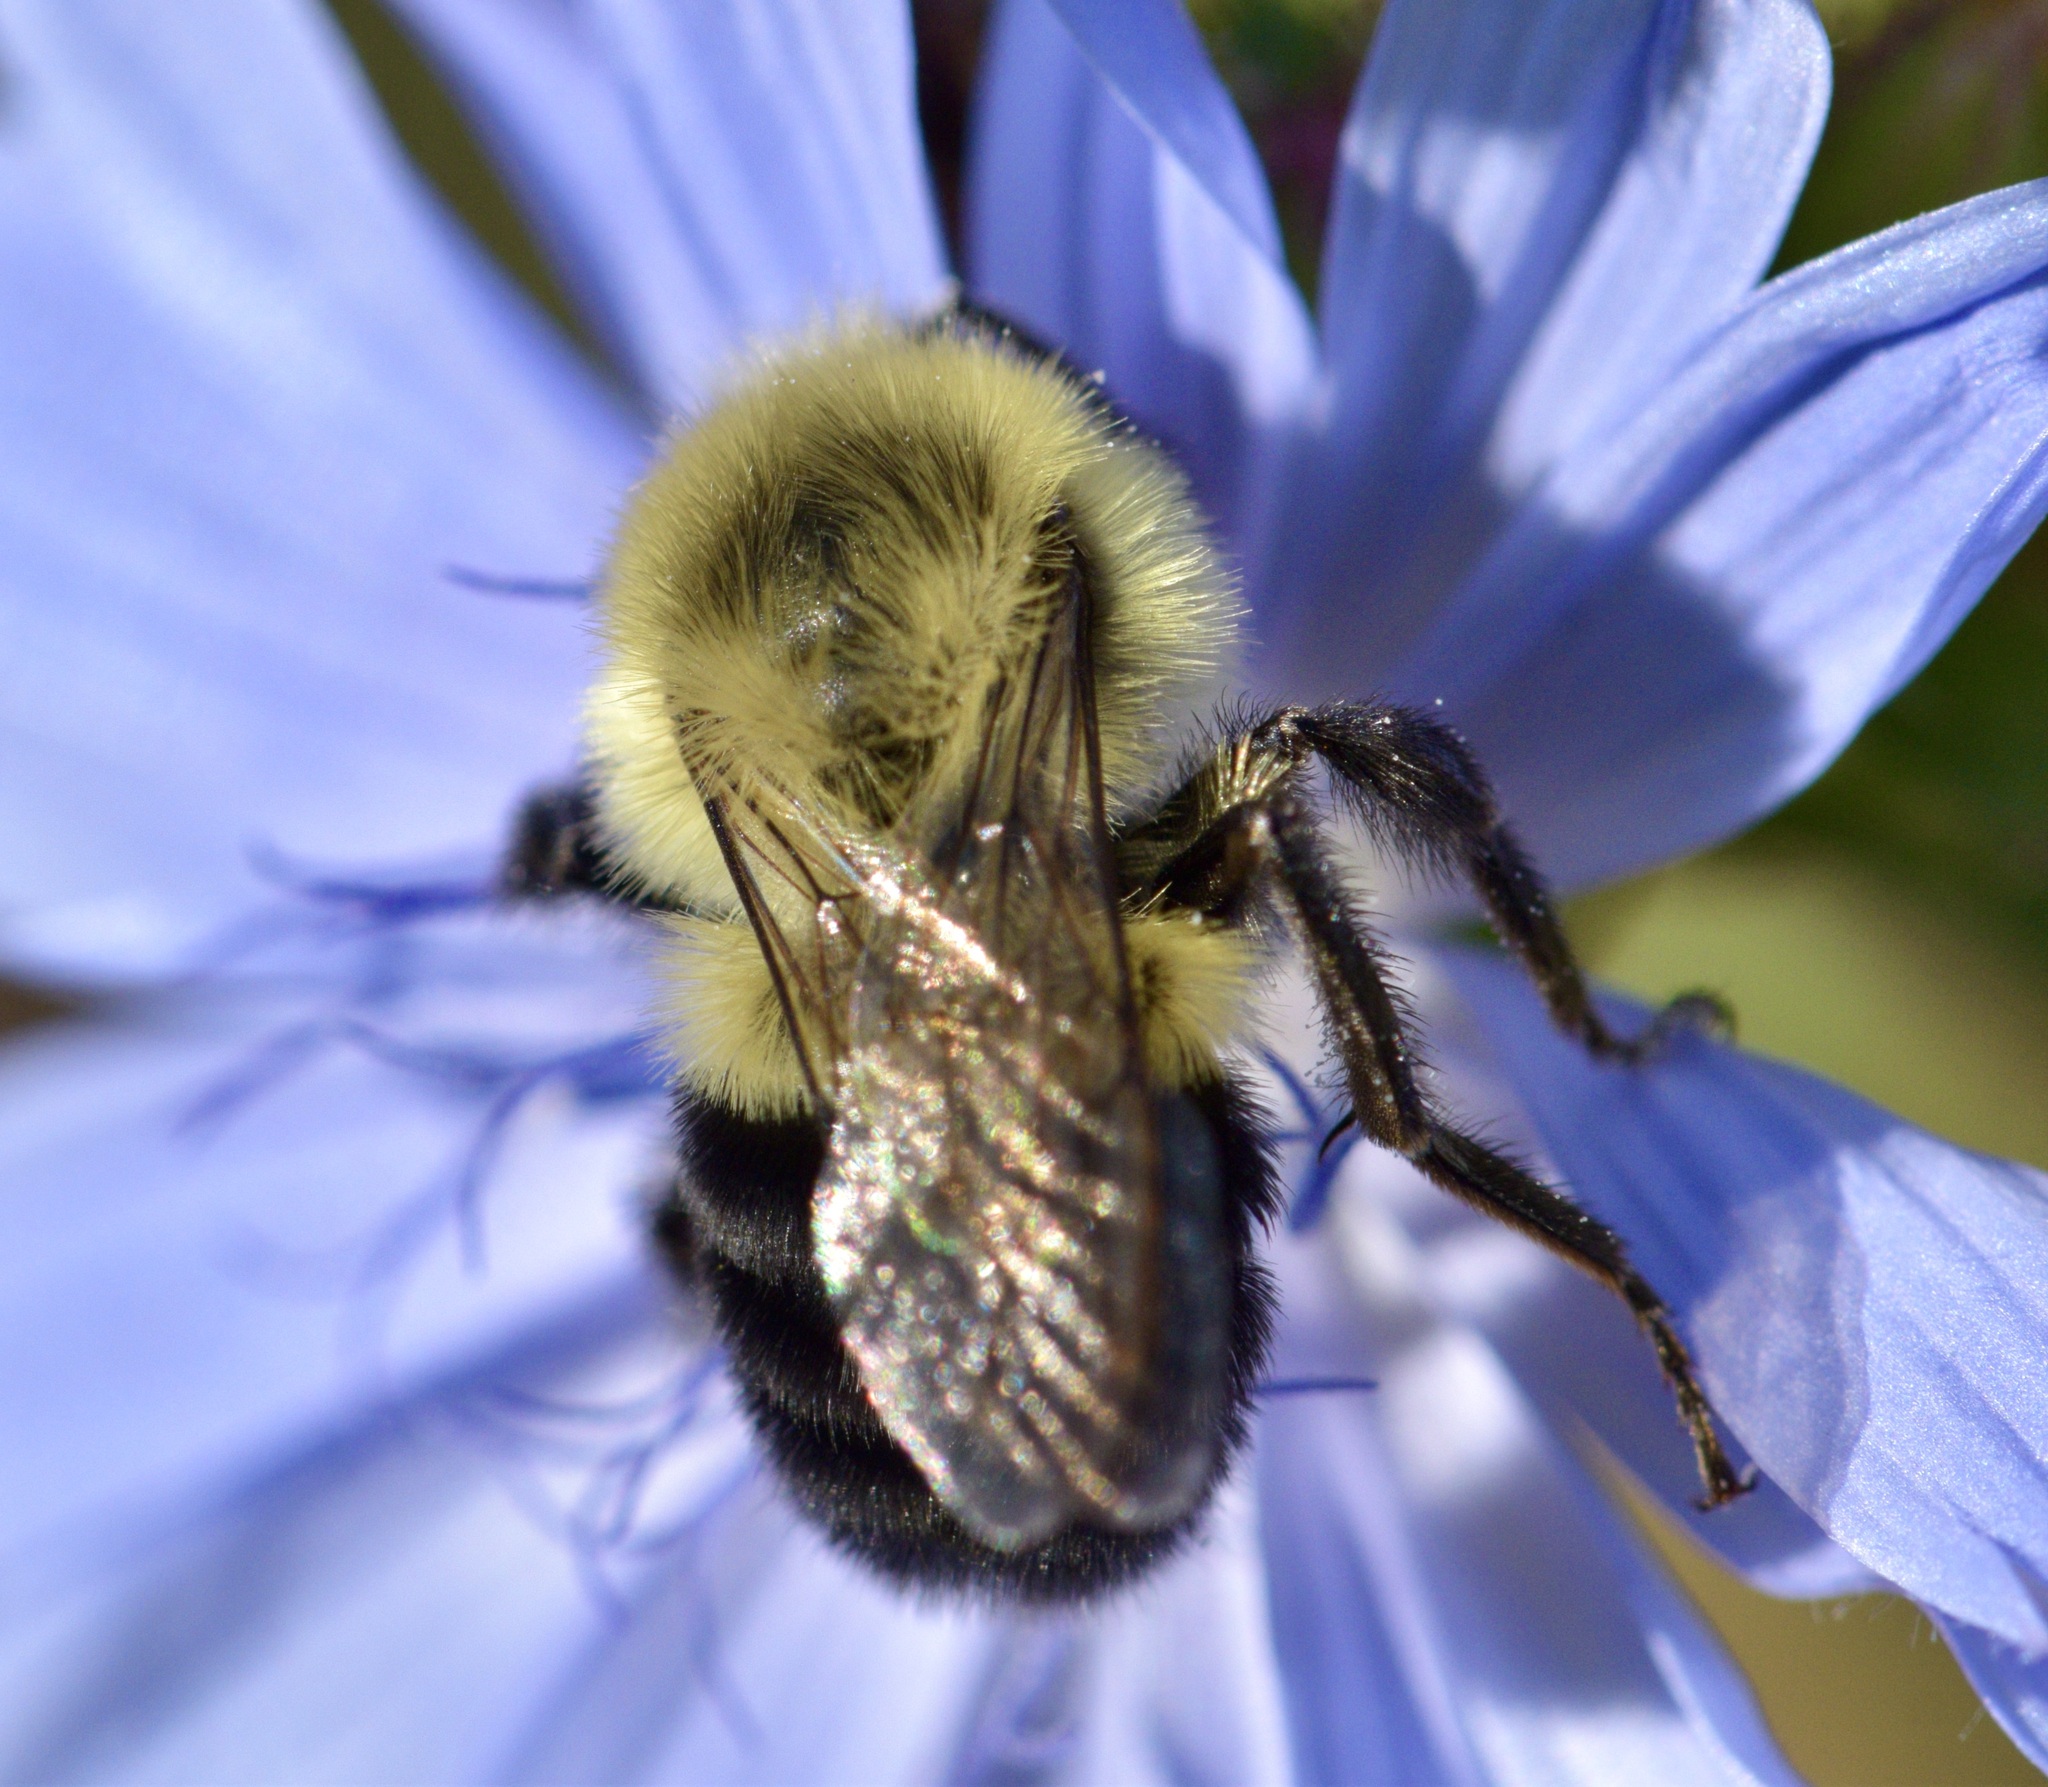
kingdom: Animalia
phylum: Arthropoda
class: Insecta
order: Hymenoptera
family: Apidae
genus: Bombus
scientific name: Bombus impatiens
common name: Common eastern bumble bee
